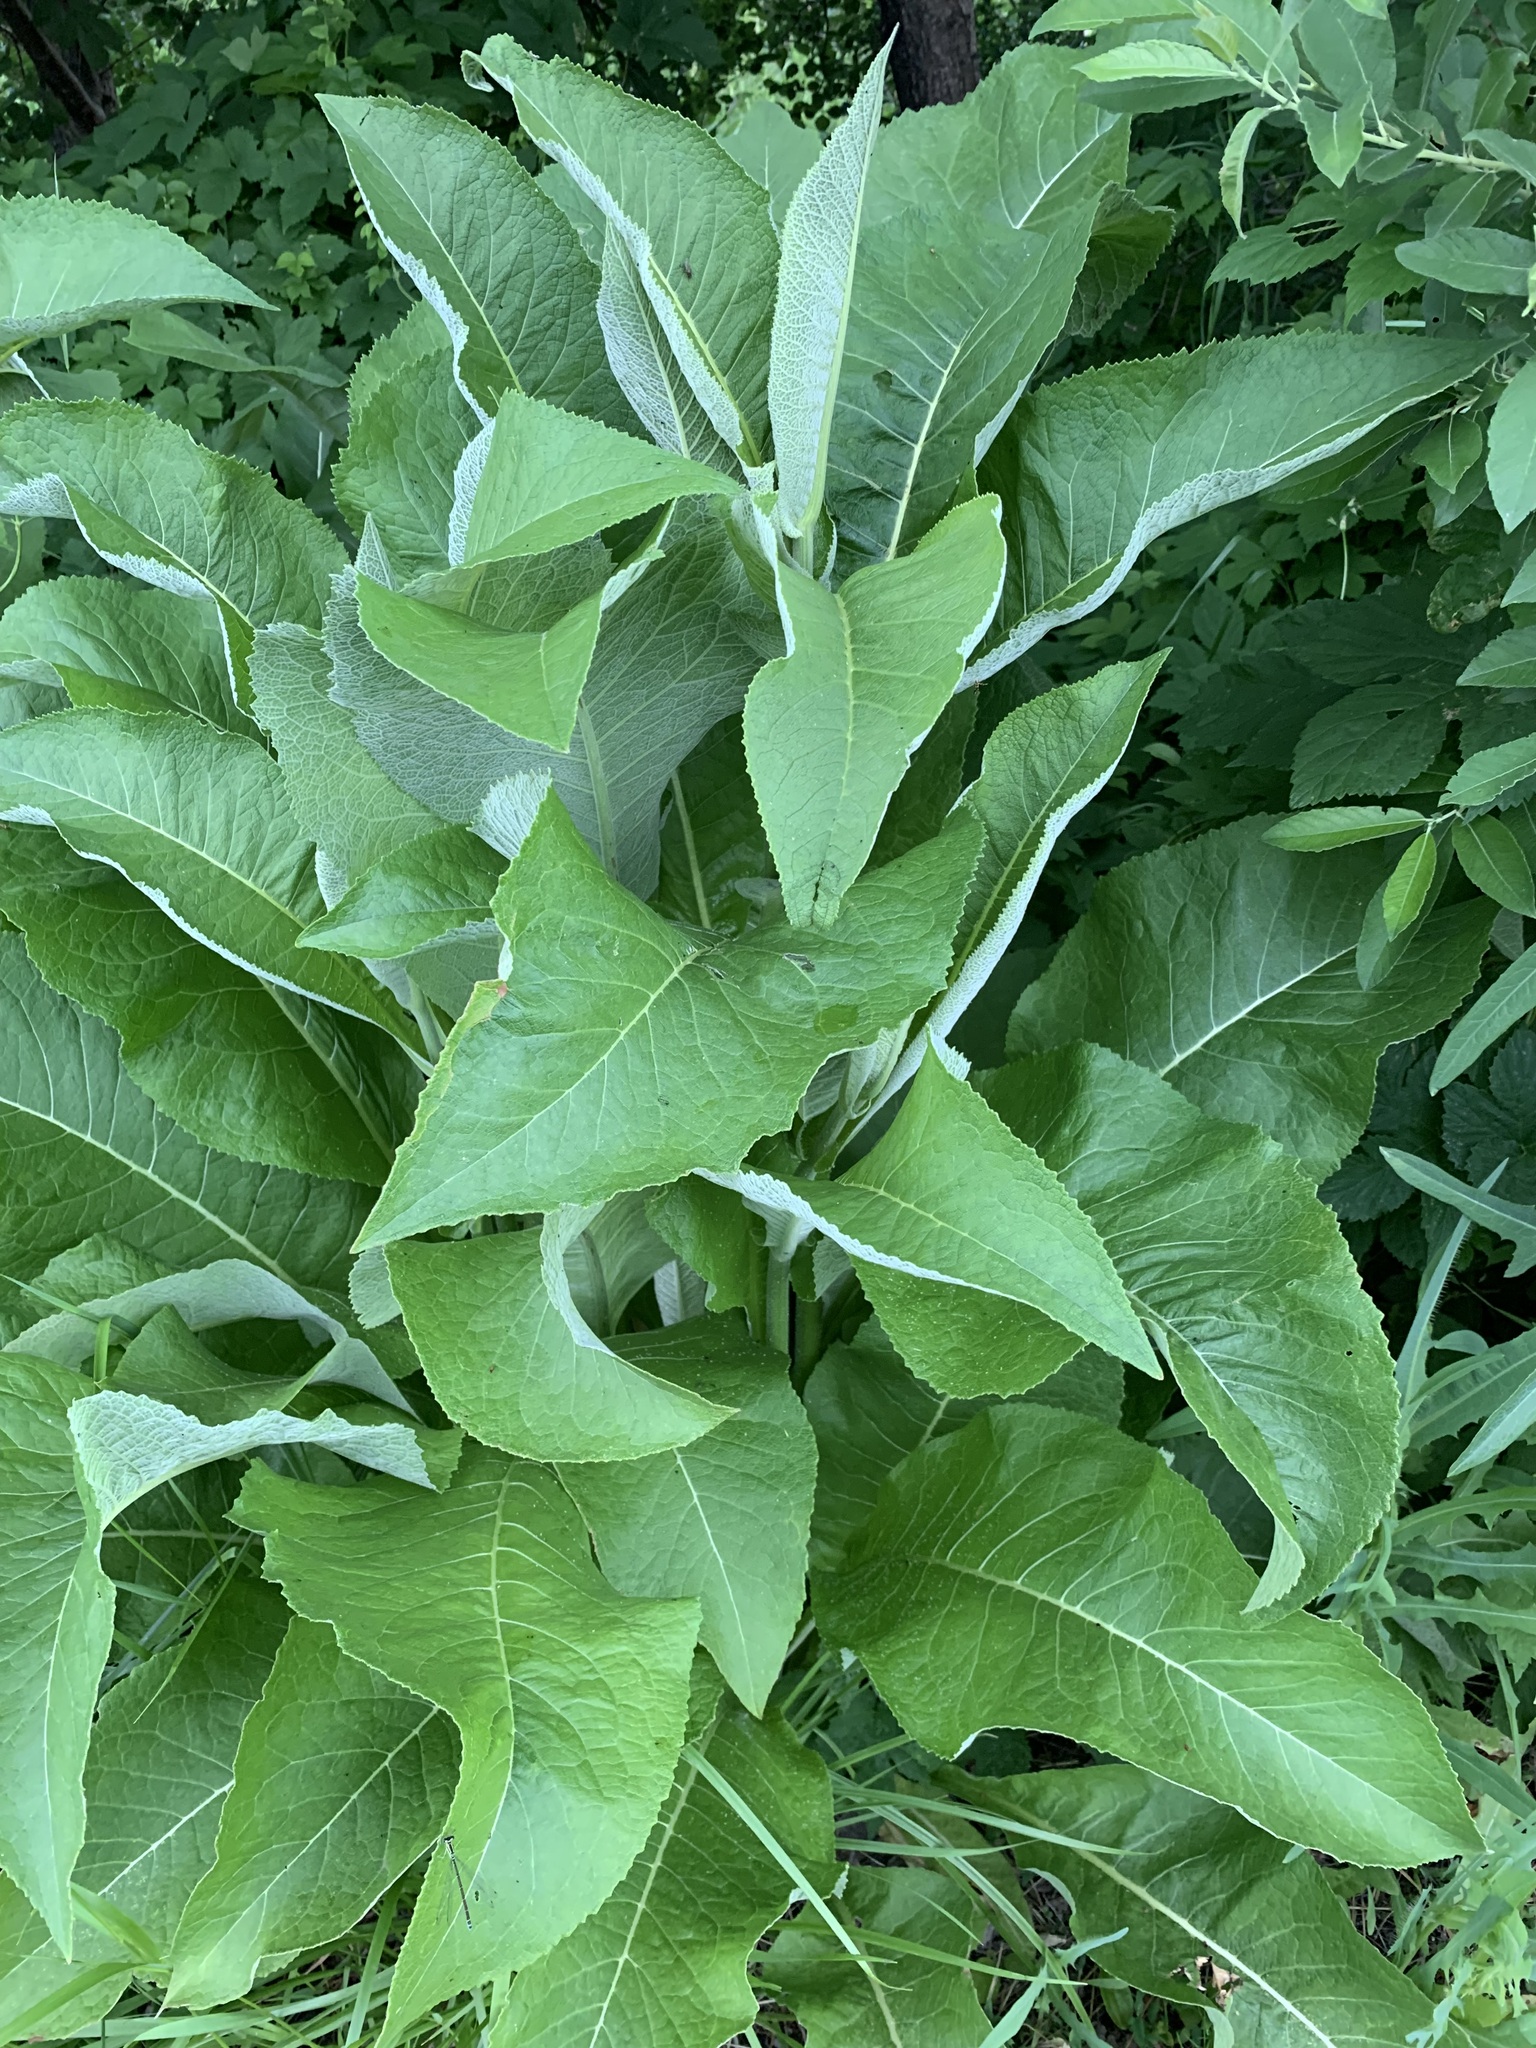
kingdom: Plantae
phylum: Tracheophyta
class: Magnoliopsida
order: Asterales
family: Asteraceae
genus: Inula
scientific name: Inula helenium
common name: Elecampane
